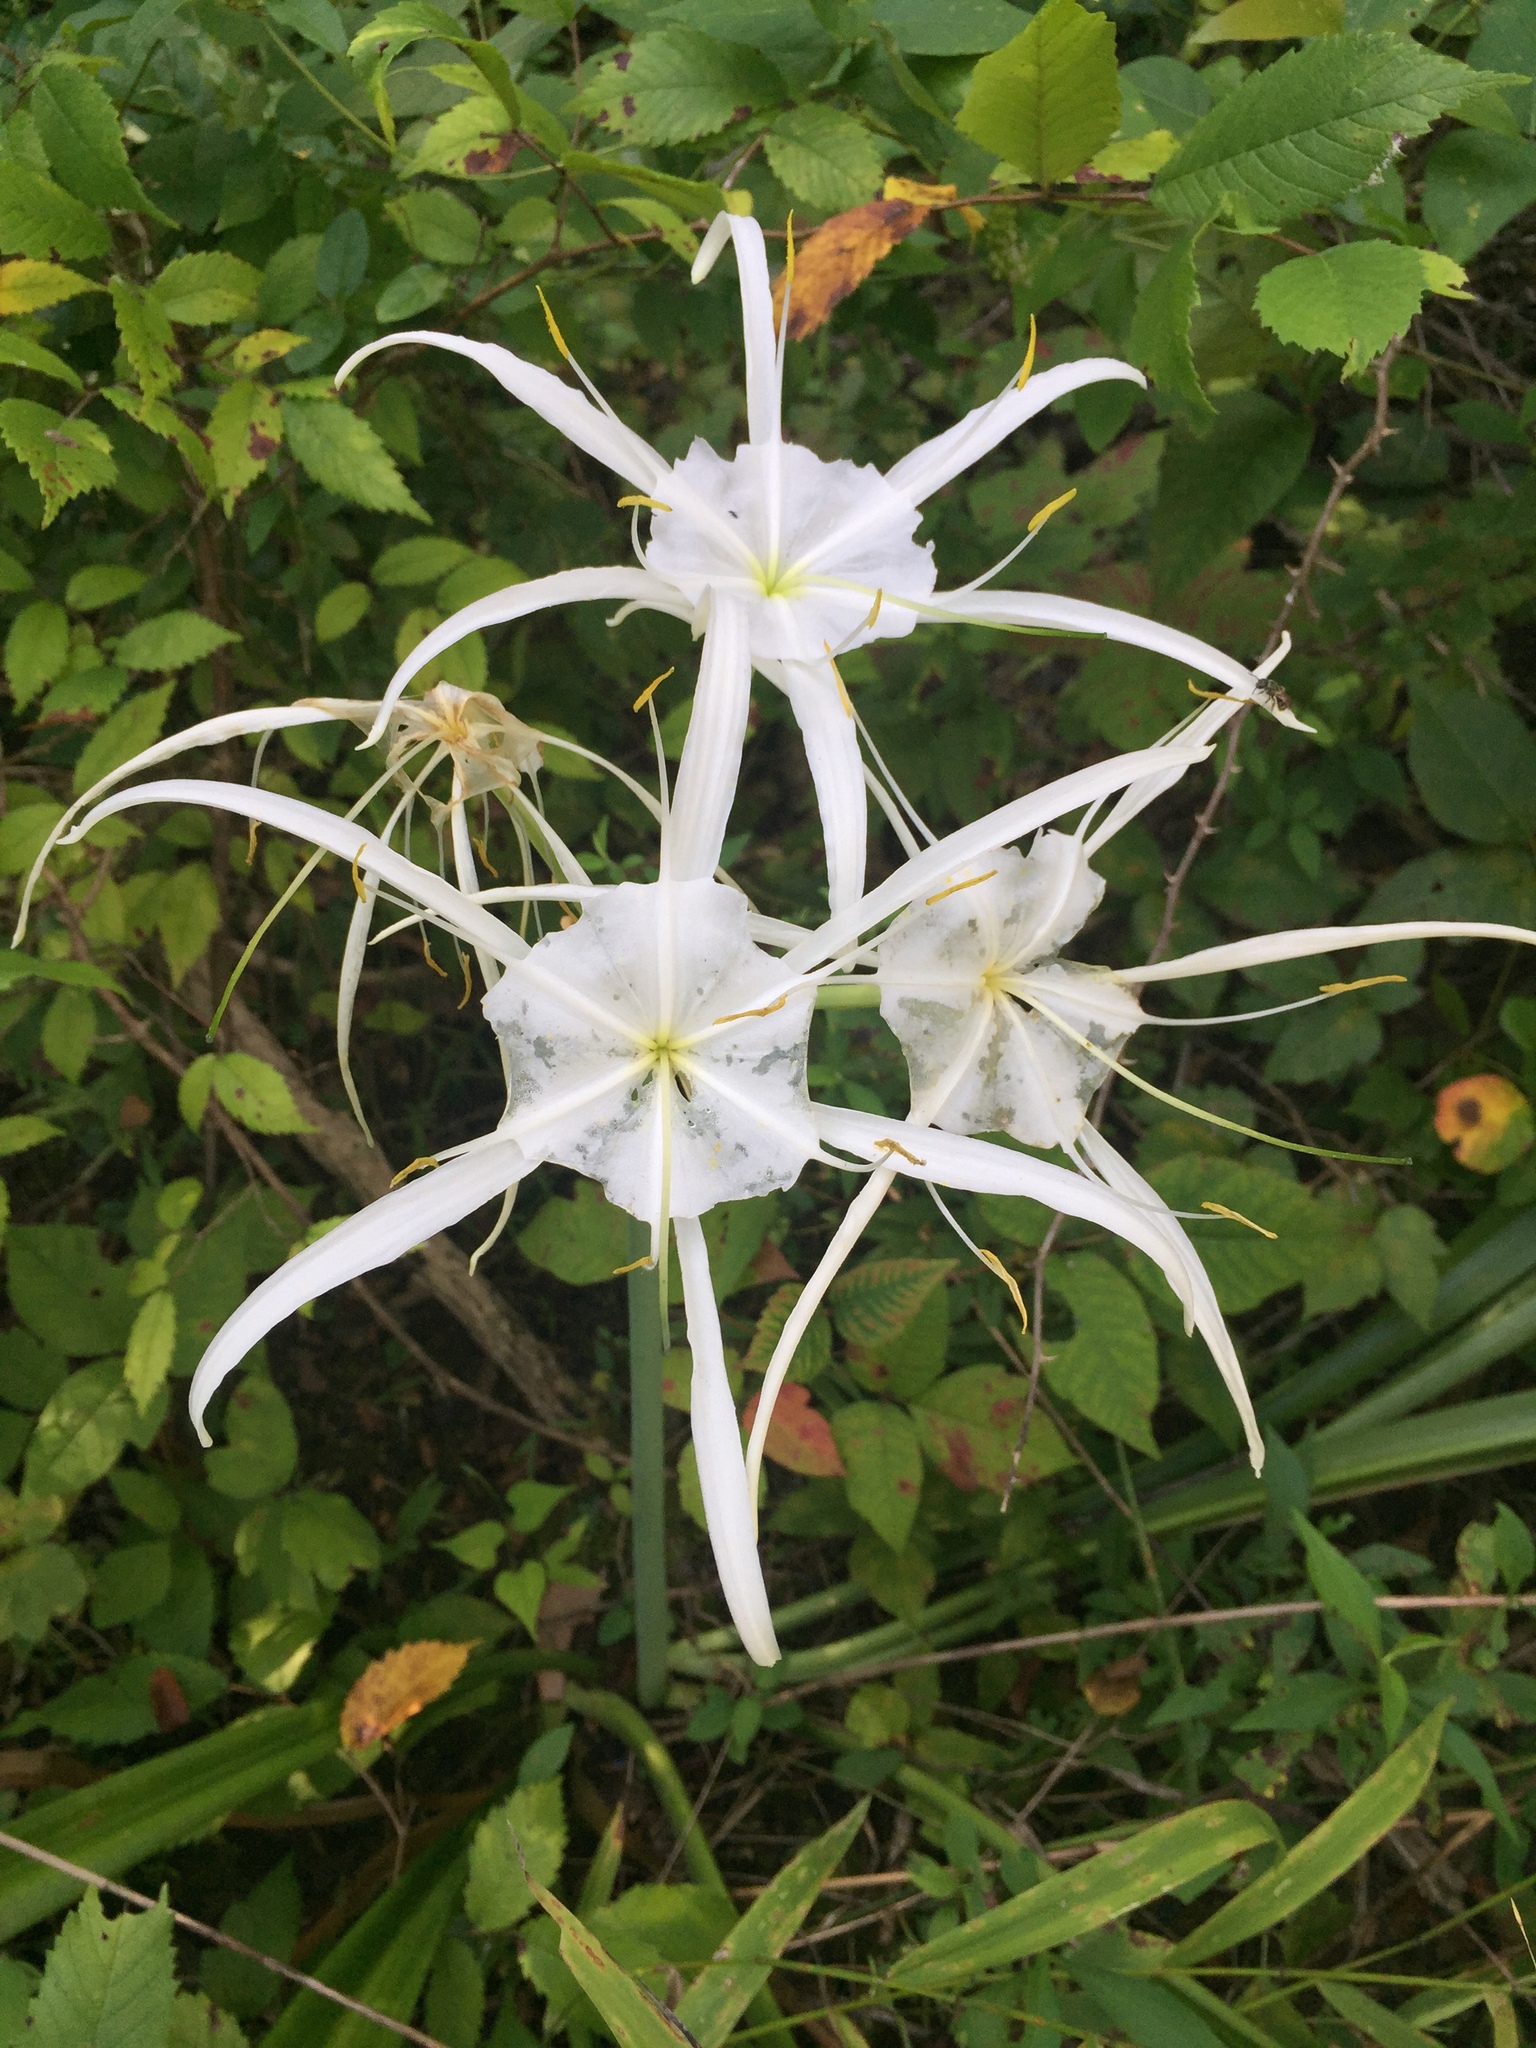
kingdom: Plantae
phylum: Tracheophyta
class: Liliopsida
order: Asparagales
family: Amaryllidaceae
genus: Hymenocallis
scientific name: Hymenocallis occidentalis
